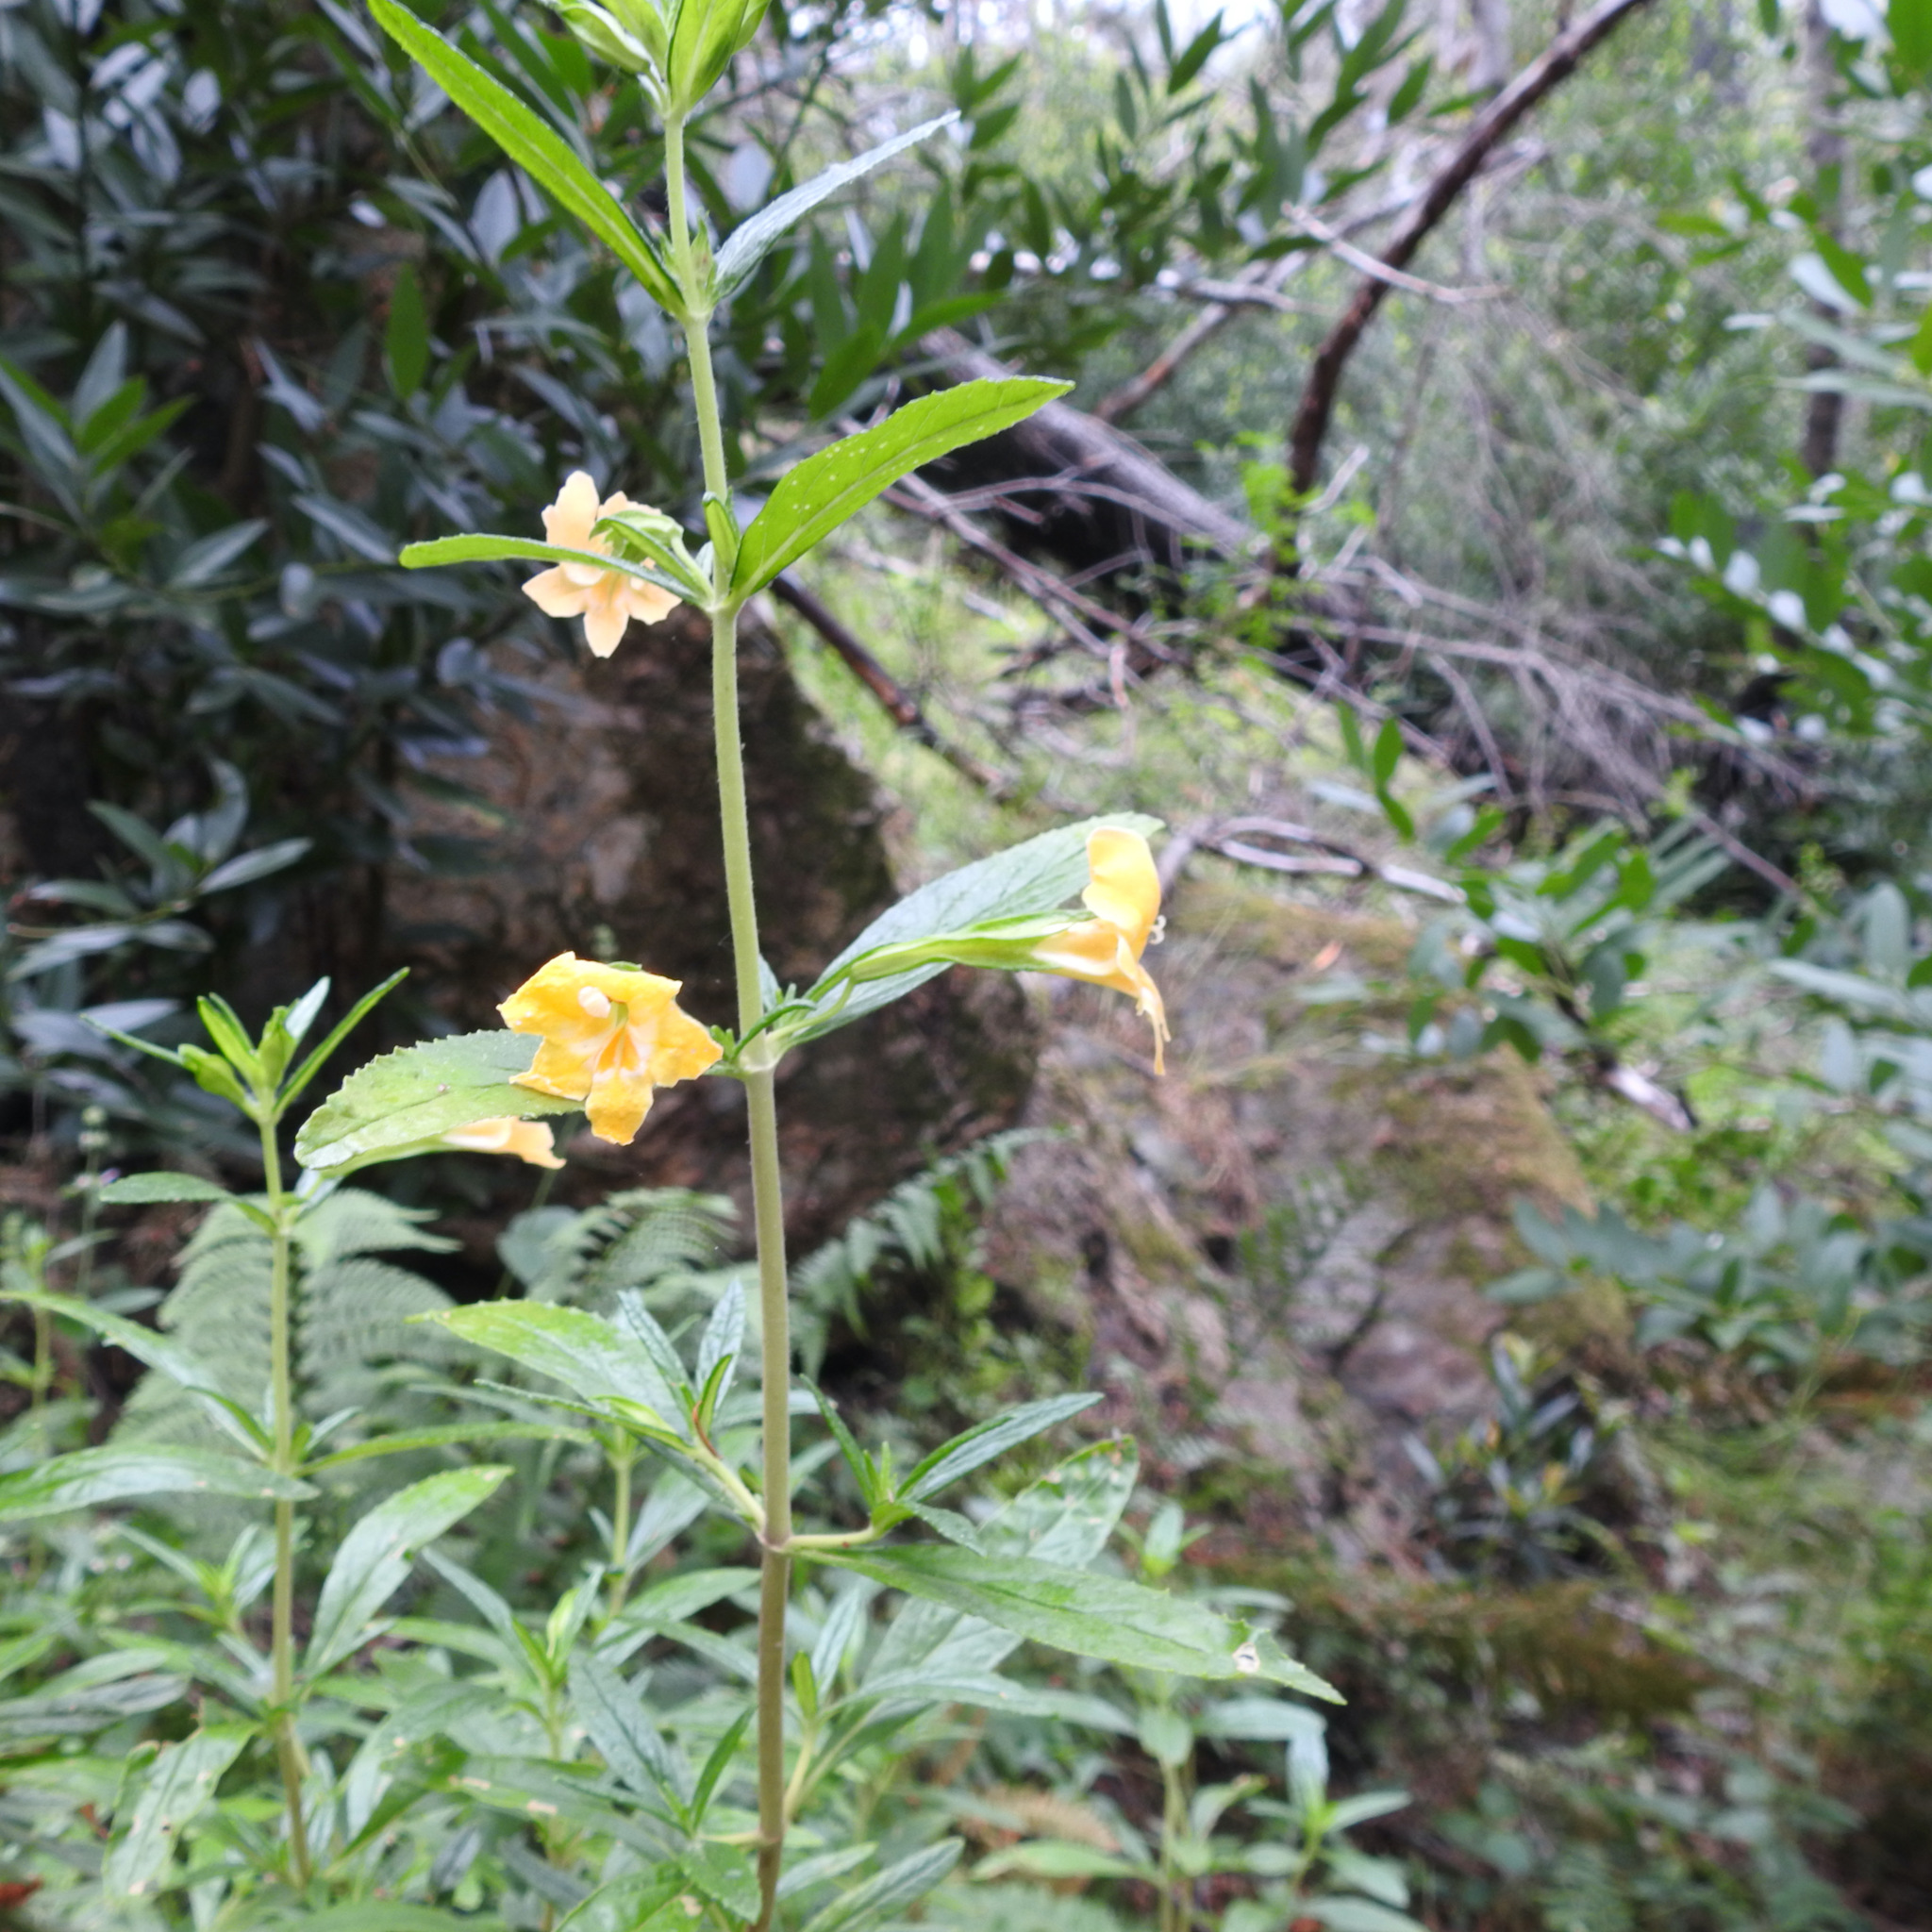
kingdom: Plantae
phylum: Tracheophyta
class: Magnoliopsida
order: Lamiales
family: Phrymaceae
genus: Diplacus
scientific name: Diplacus aurantiacus
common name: Bush monkey-flower
